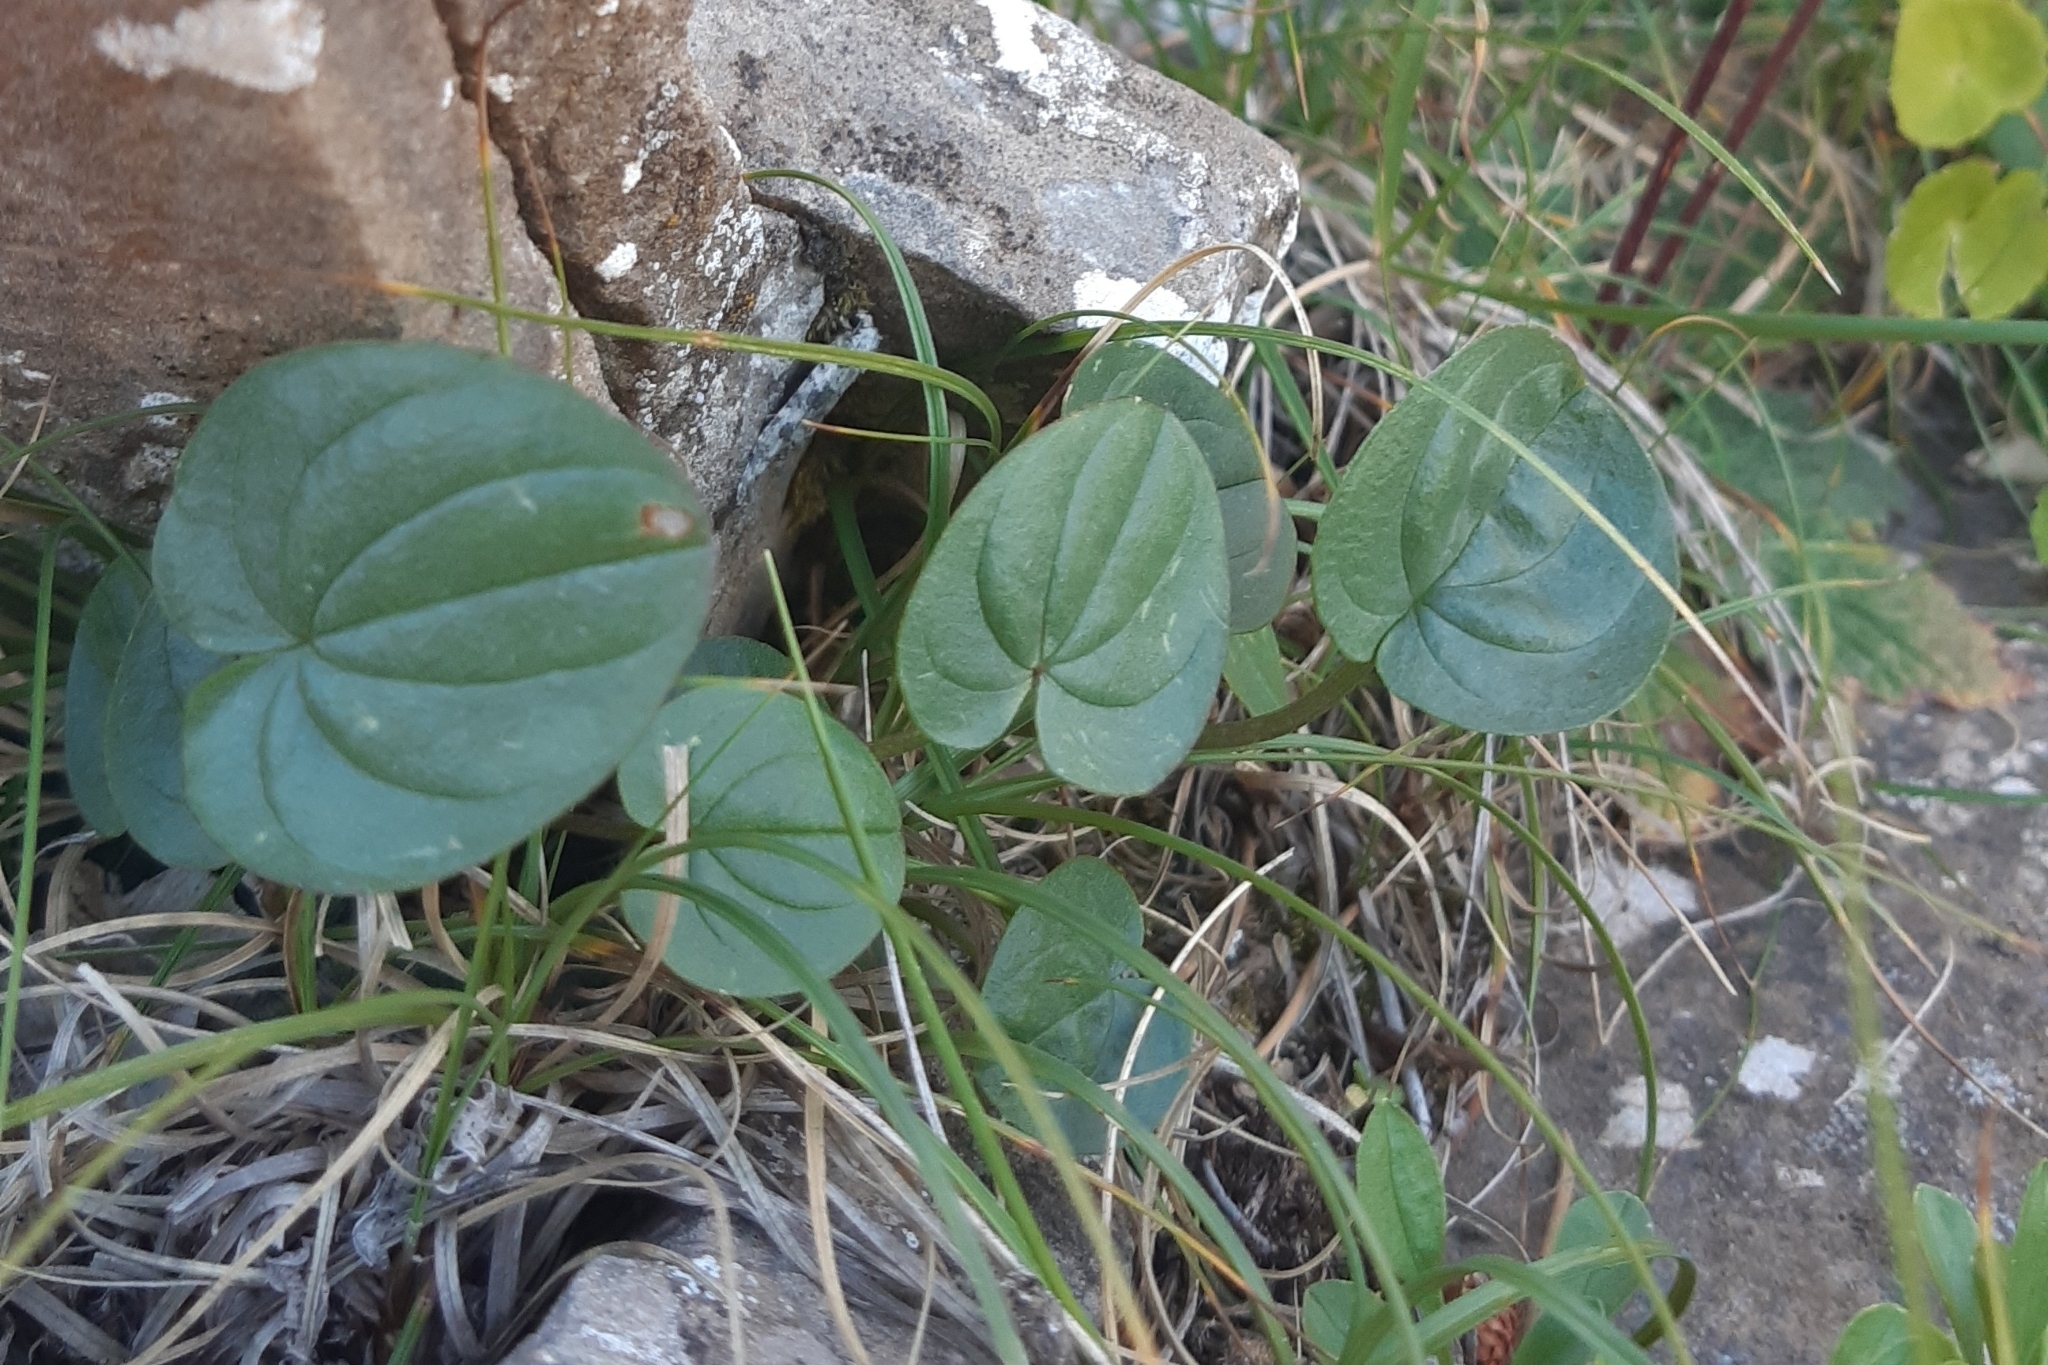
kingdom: Plantae
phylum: Tracheophyta
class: Liliopsida
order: Dioscoreales
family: Dioscoreaceae
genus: Dioscorea
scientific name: Dioscorea pyrenaica
